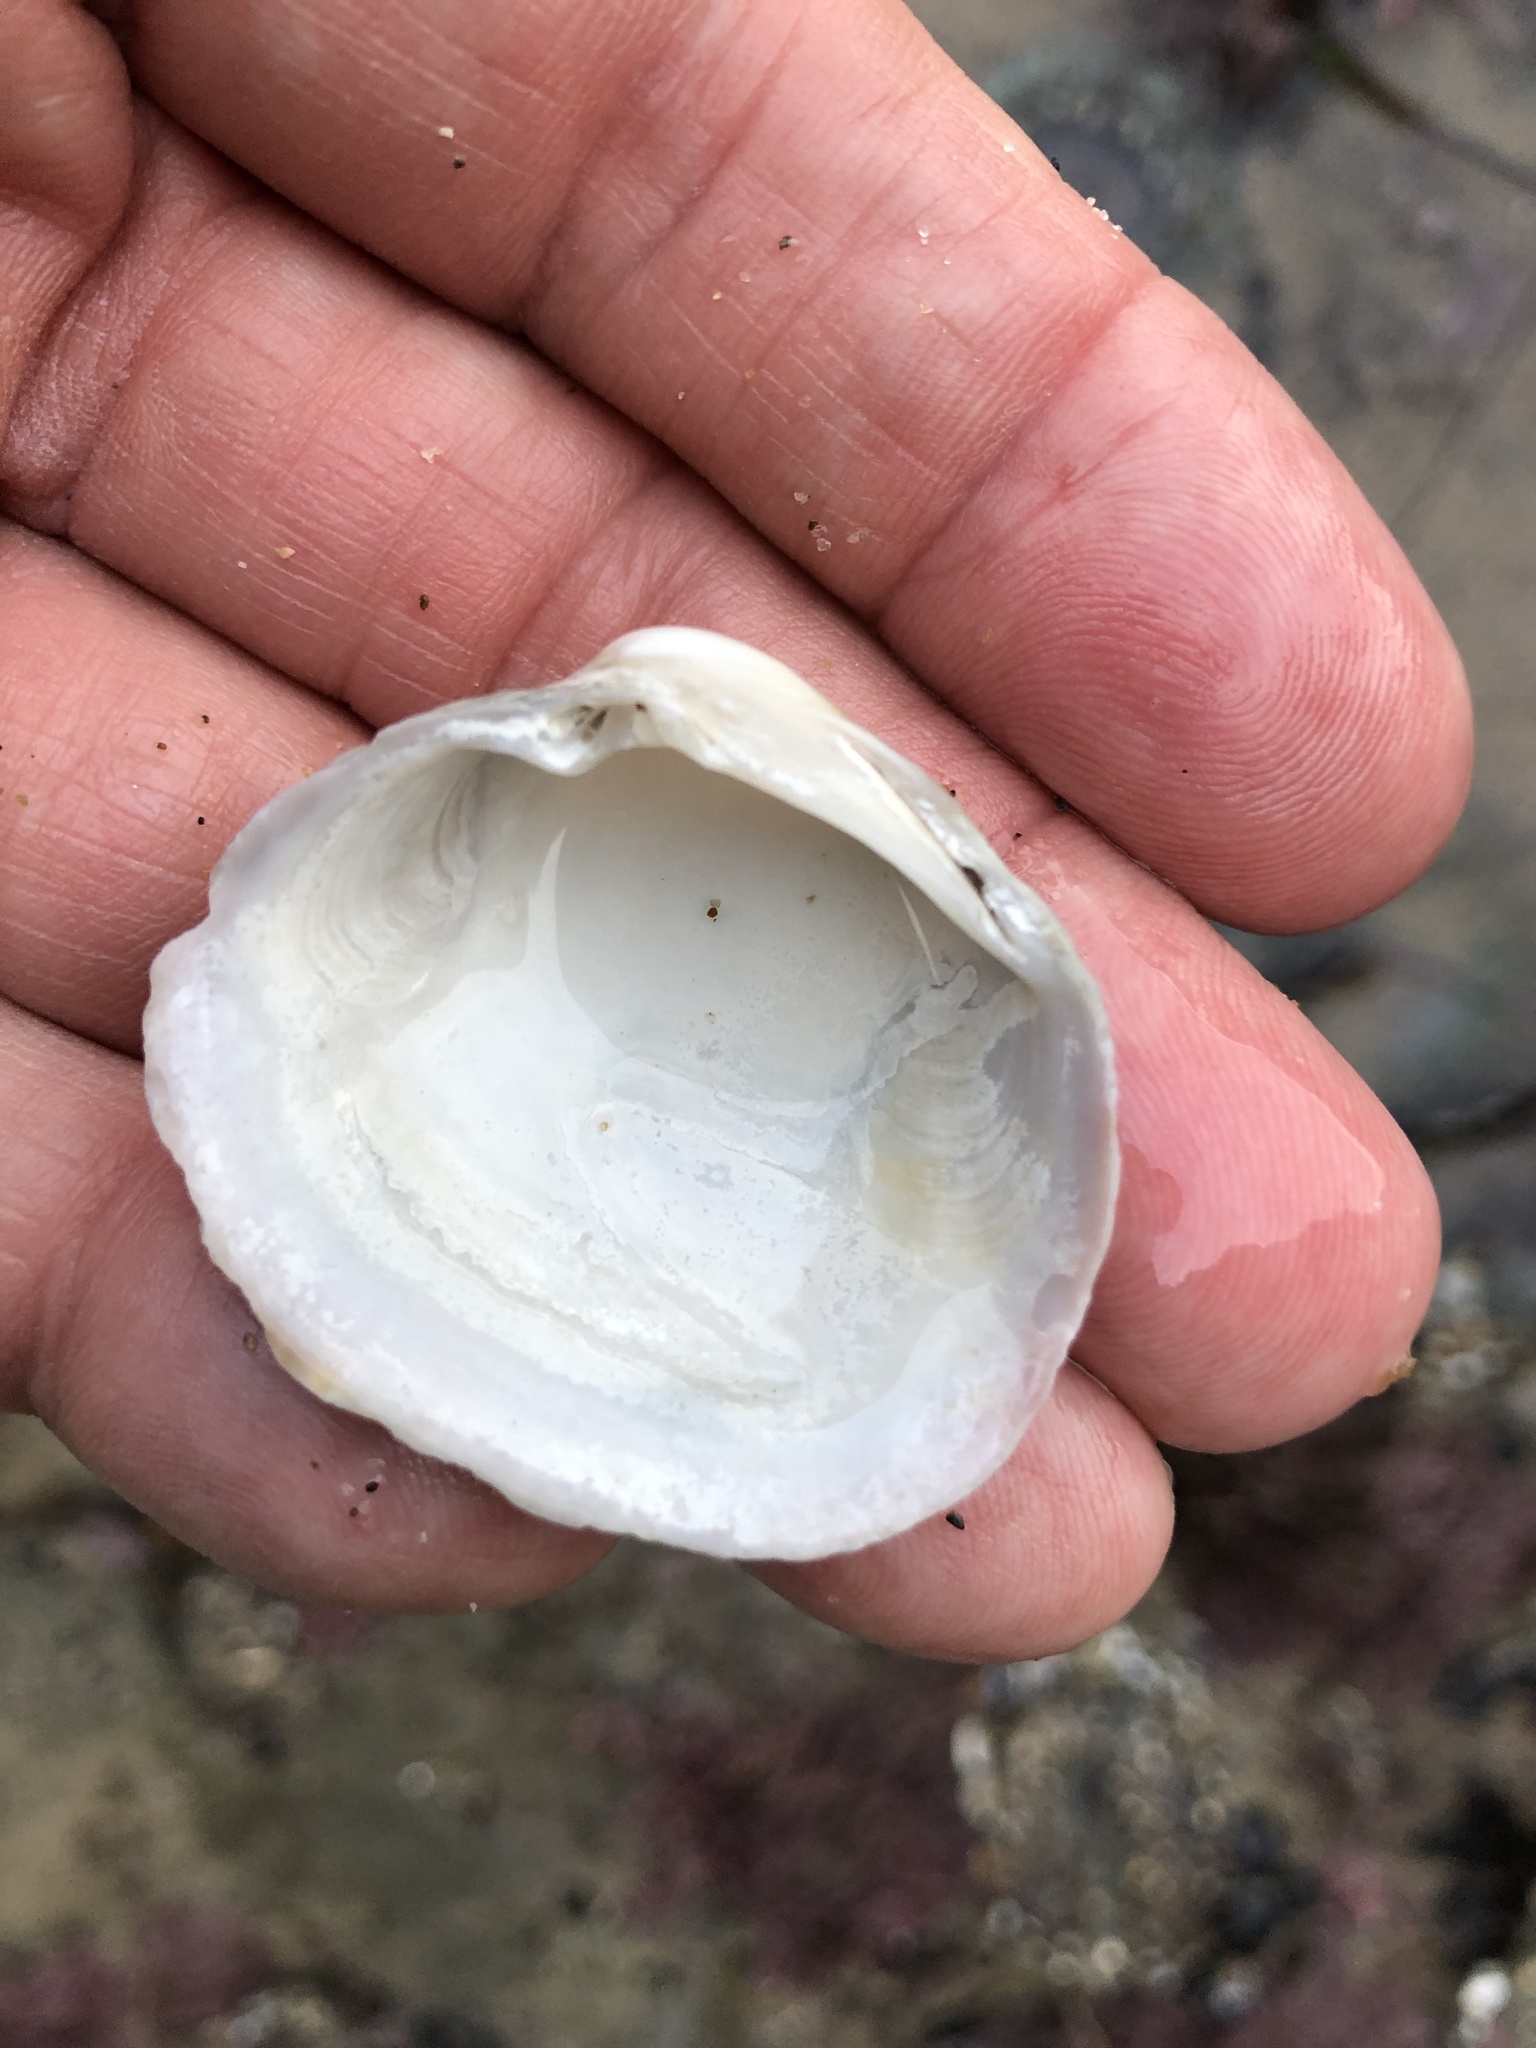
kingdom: Animalia
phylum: Mollusca
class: Bivalvia
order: Venerida
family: Veneridae
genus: Leukoma
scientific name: Leukoma staminea
